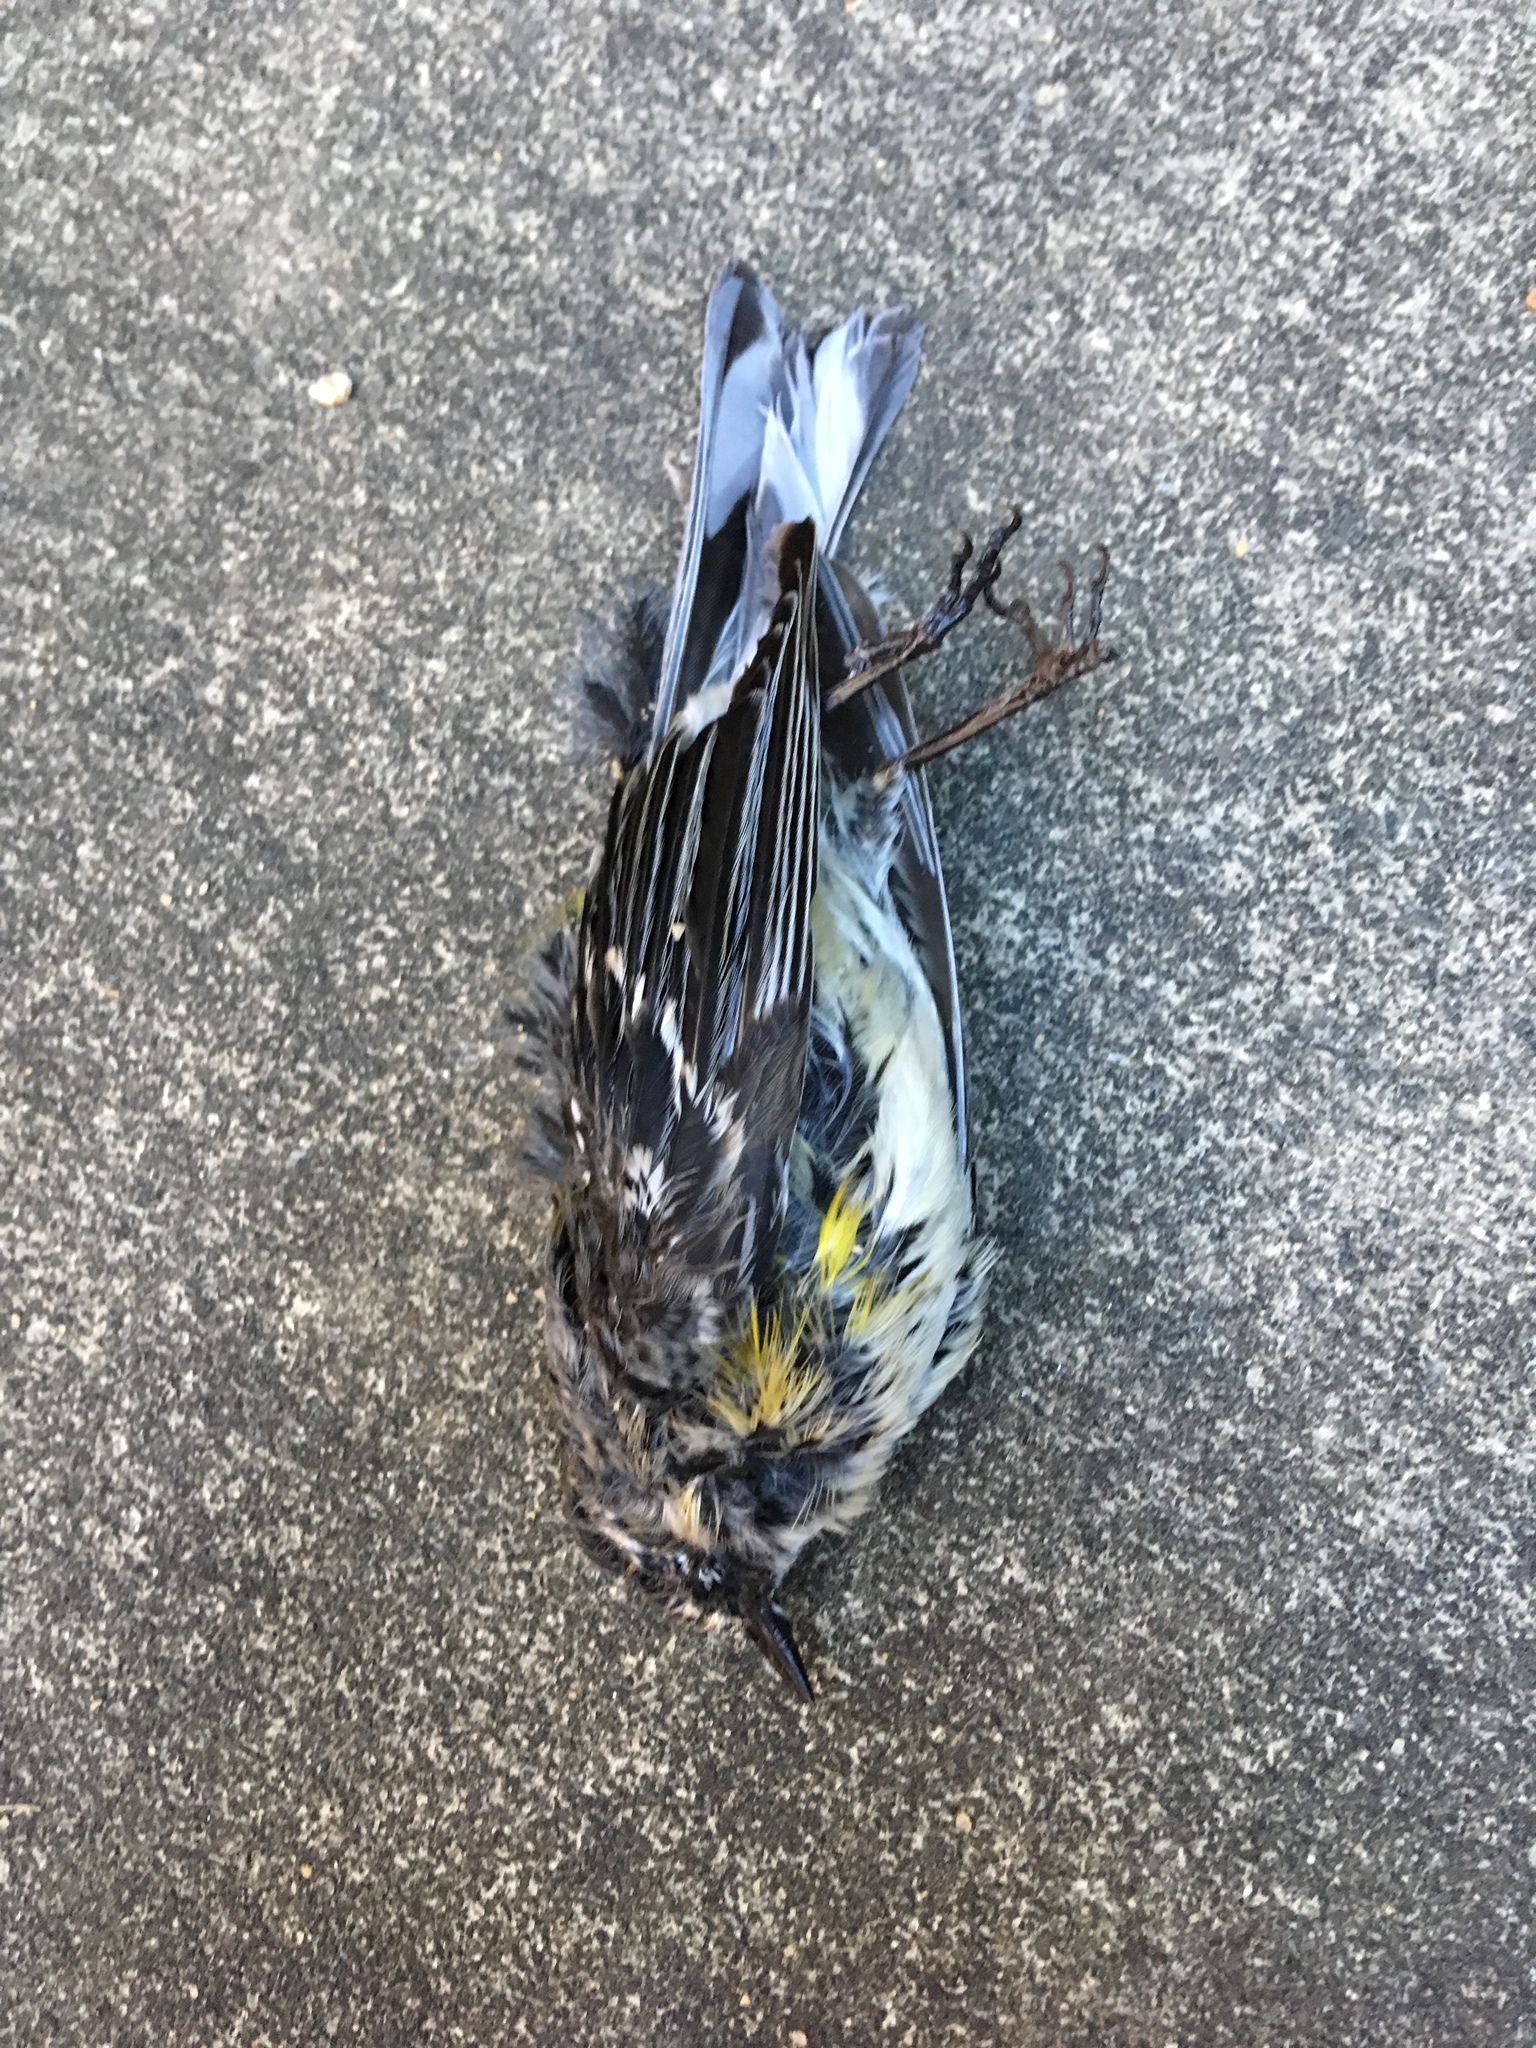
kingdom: Animalia
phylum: Chordata
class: Aves
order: Passeriformes
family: Parulidae
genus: Setophaga
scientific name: Setophaga coronata
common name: Myrtle warbler
